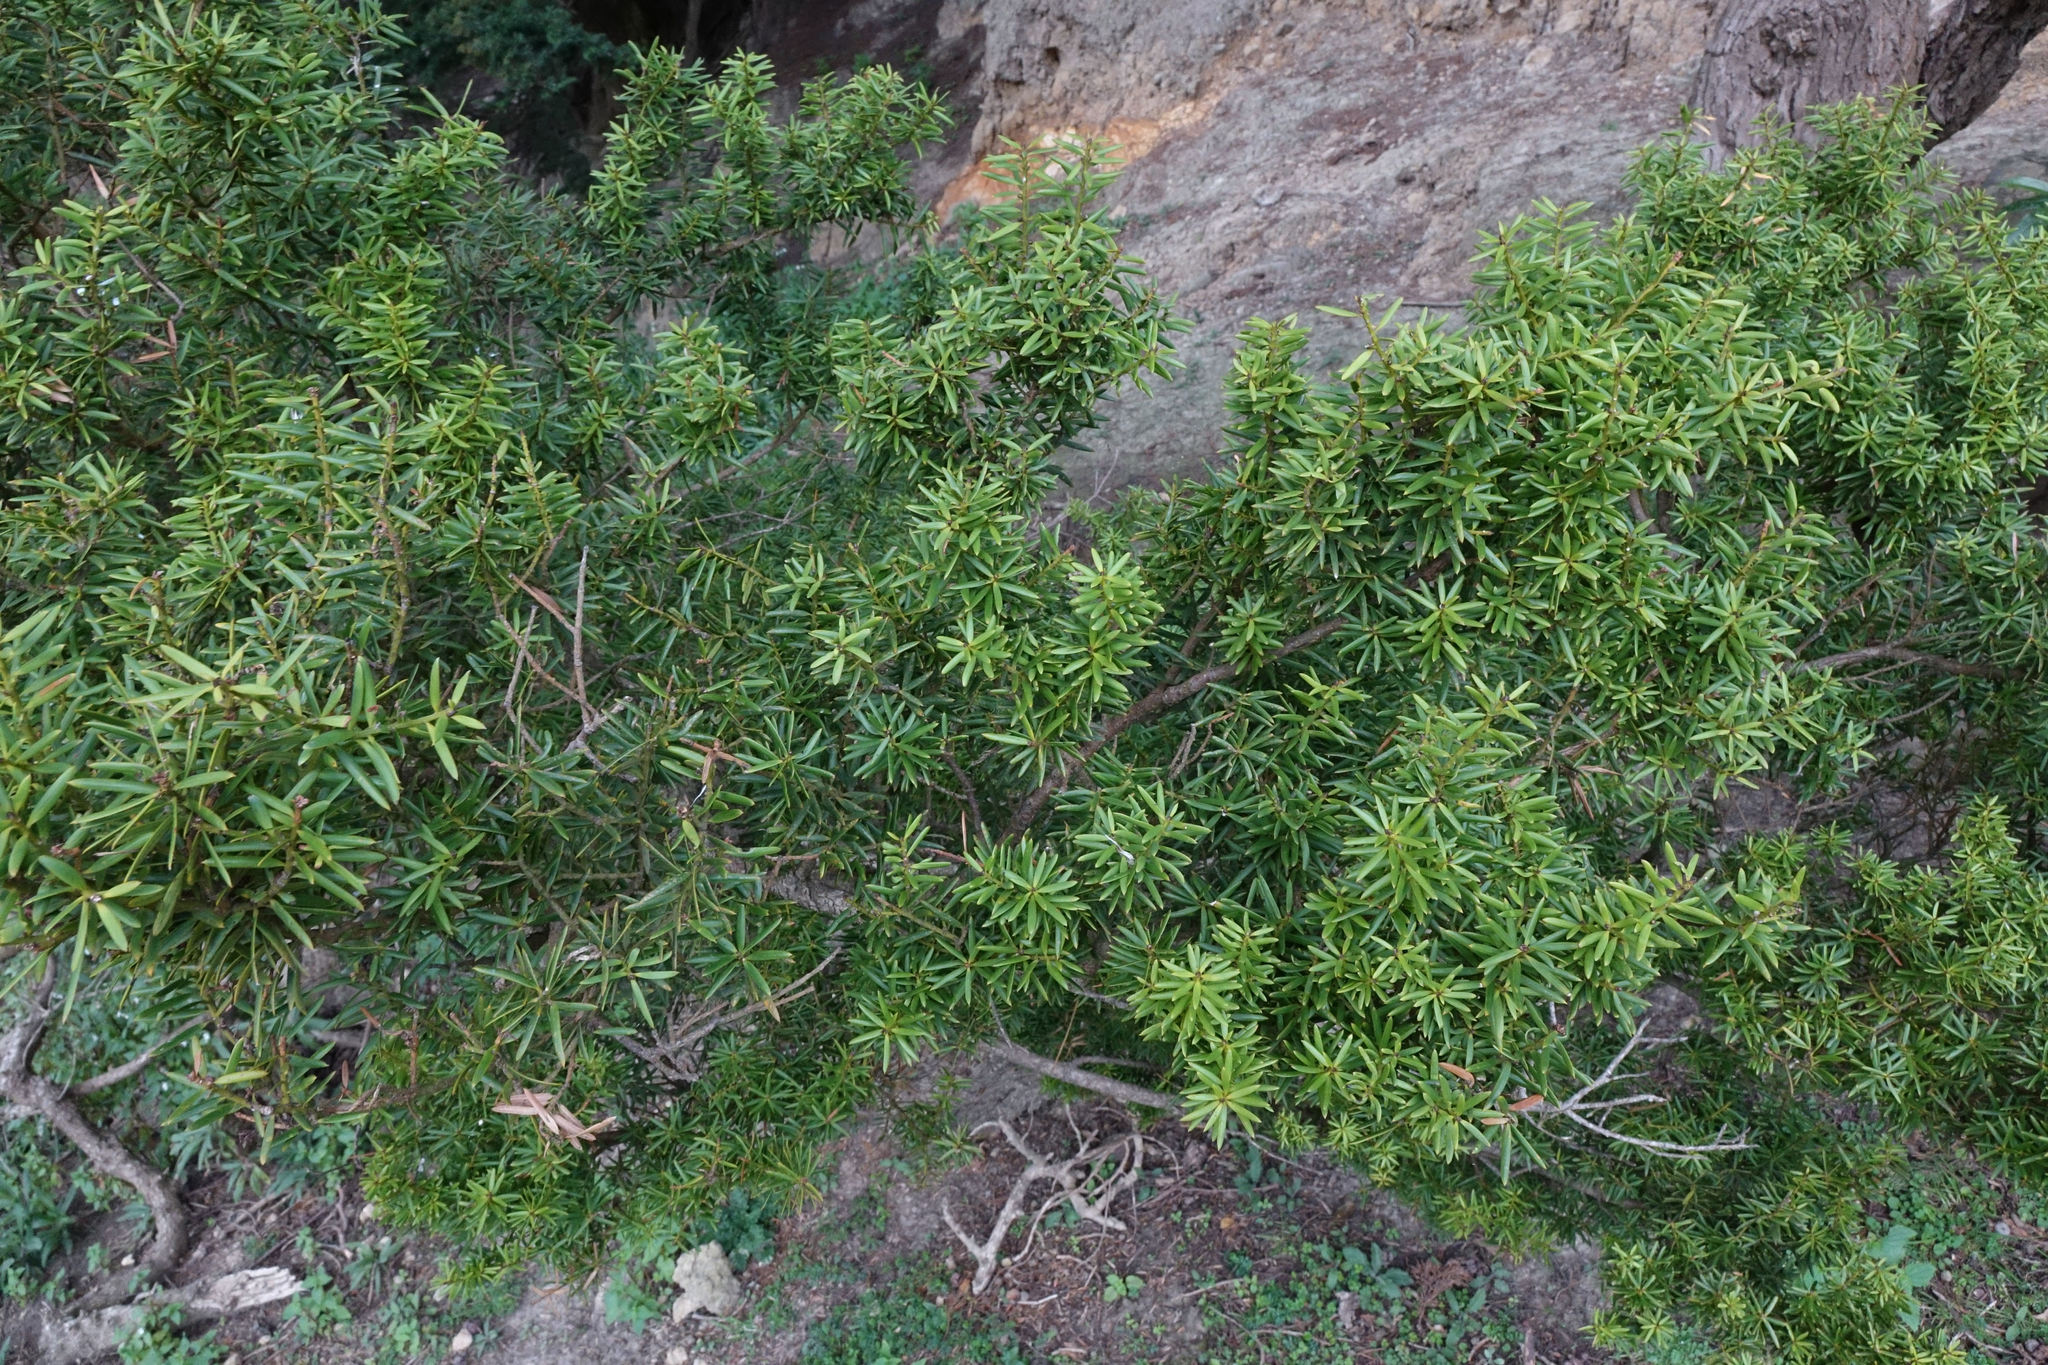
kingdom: Plantae
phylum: Tracheophyta
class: Pinopsida
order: Pinales
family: Podocarpaceae
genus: Podocarpus
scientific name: Podocarpus totara
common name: Totara
